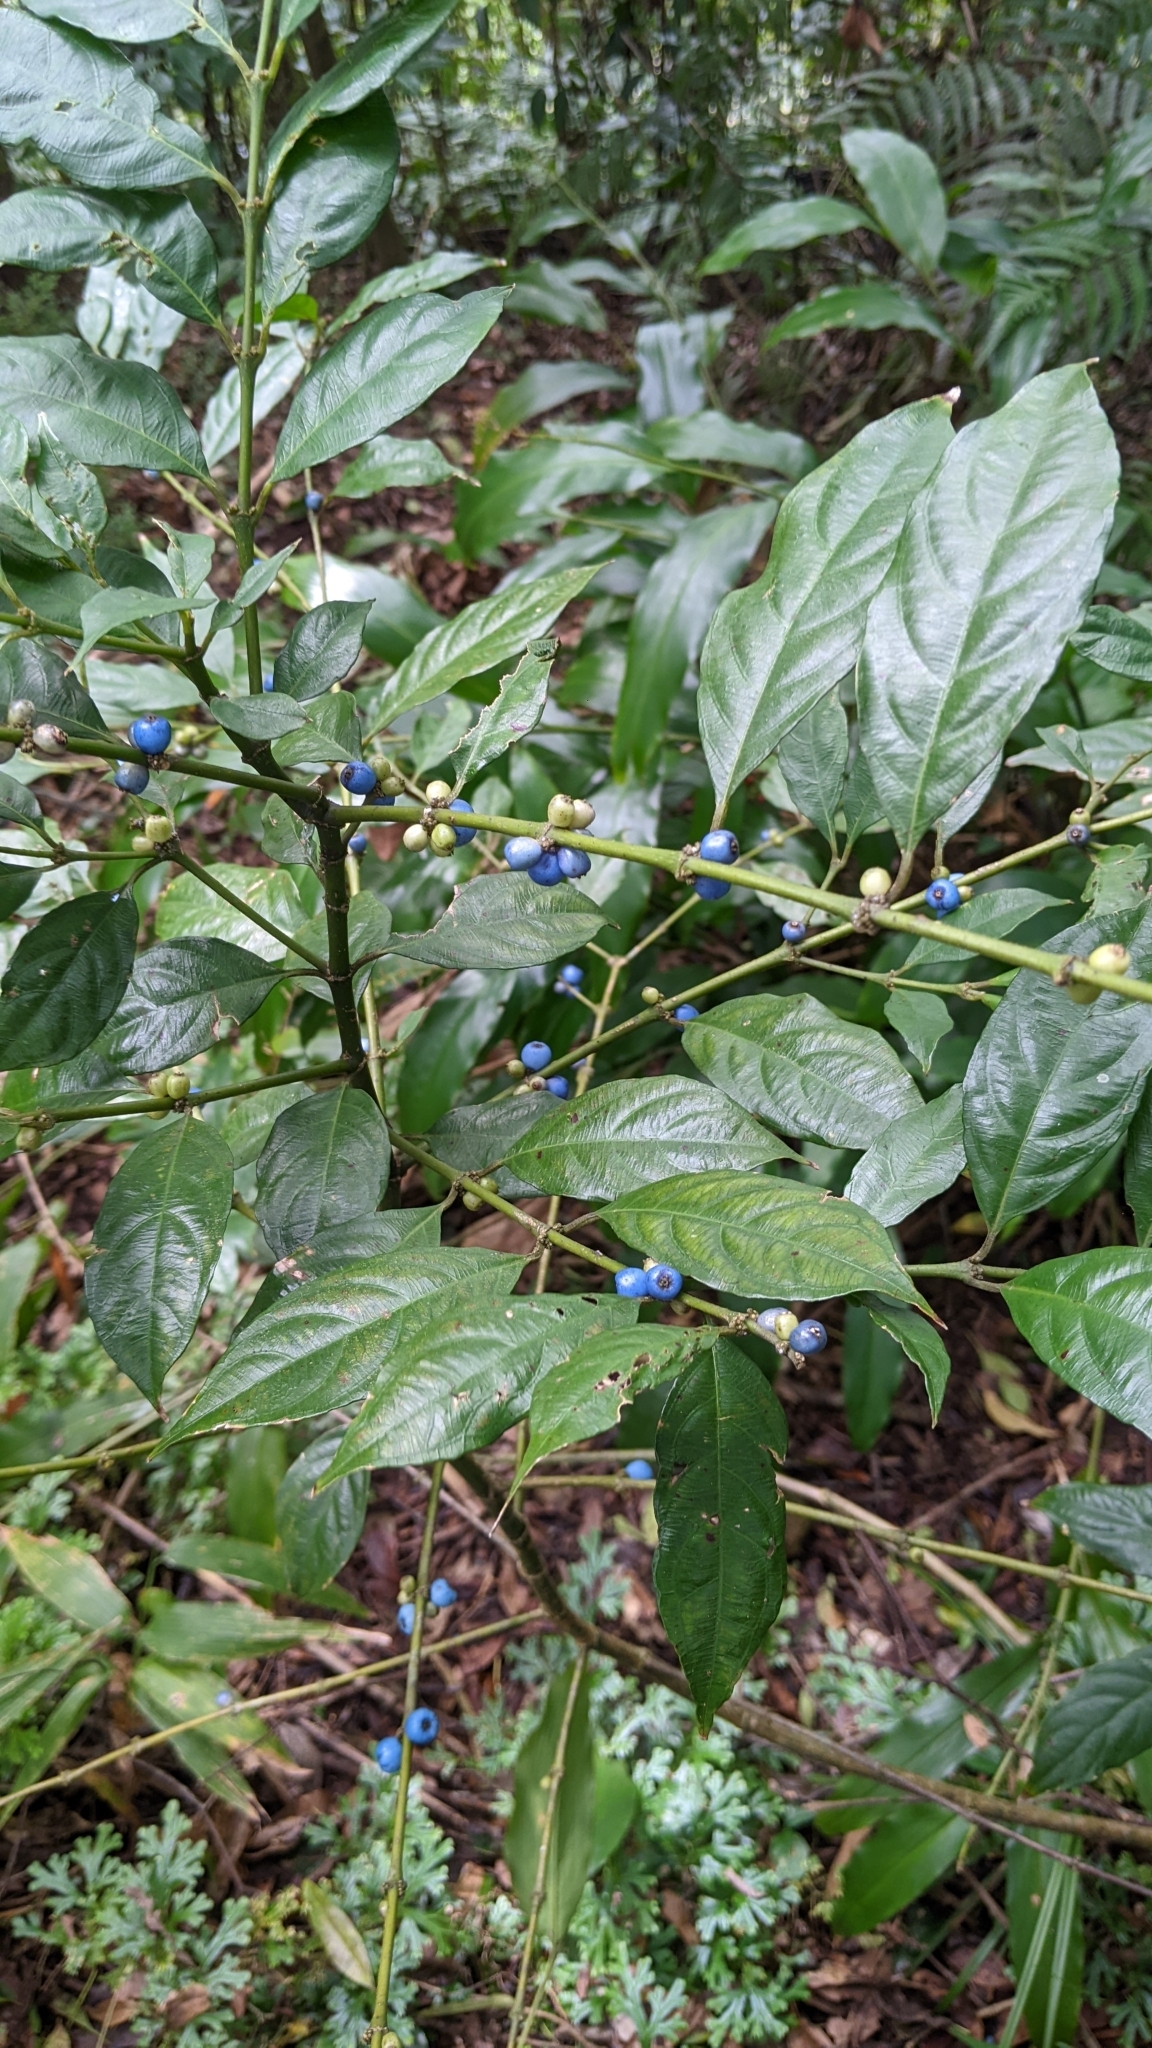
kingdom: Plantae
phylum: Tracheophyta
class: Magnoliopsida
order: Gentianales
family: Rubiaceae
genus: Lasianthus
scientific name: Lasianthus fordii
